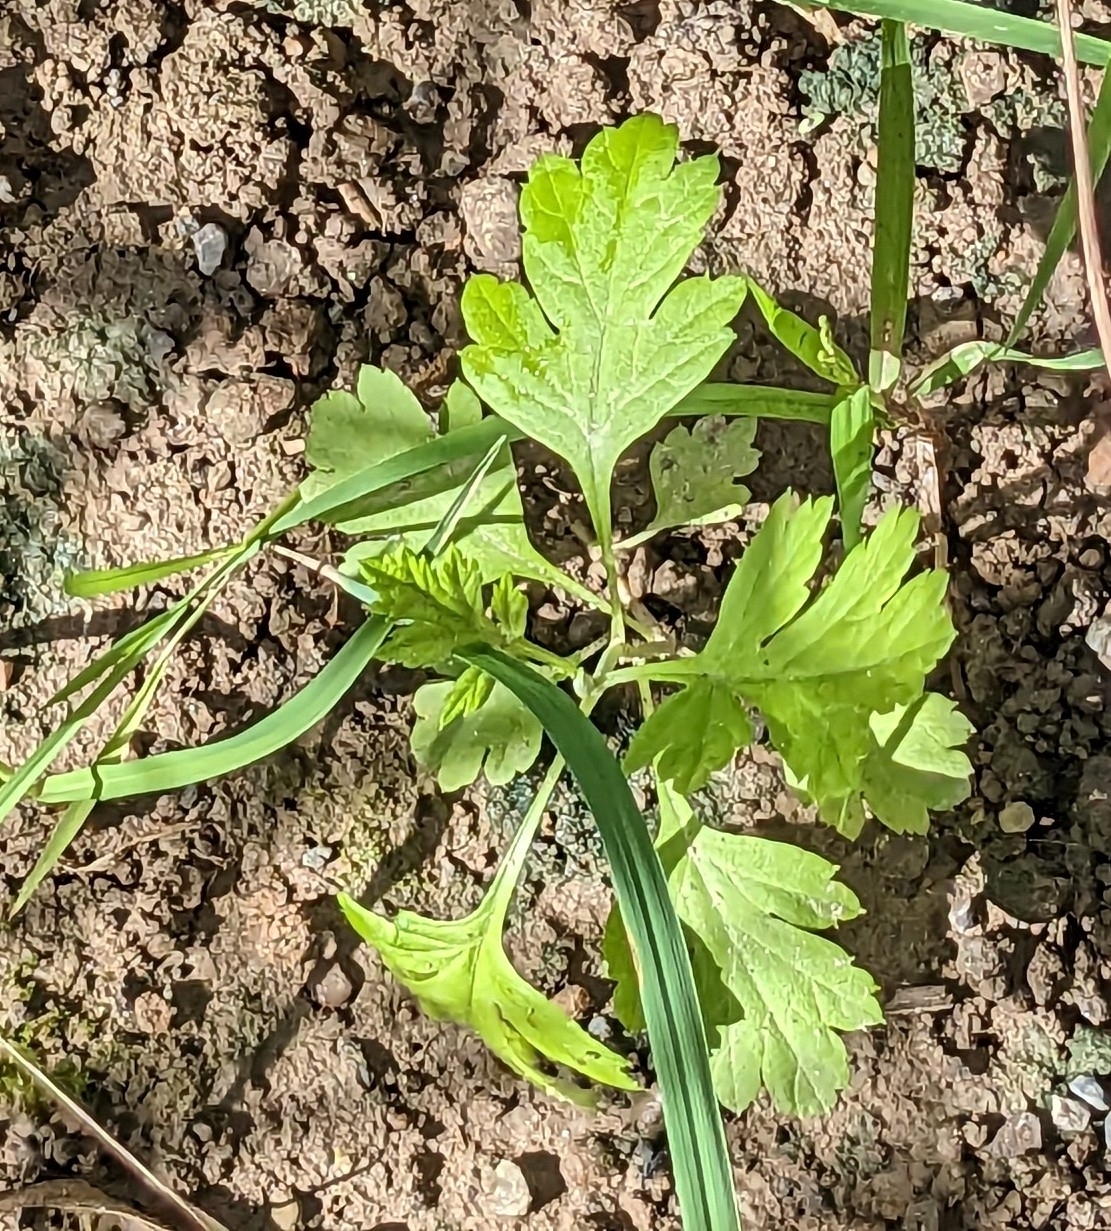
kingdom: Plantae
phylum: Tracheophyta
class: Magnoliopsida
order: Asterales
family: Asteraceae
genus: Artemisia
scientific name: Artemisia vulgaris
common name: Mugwort
